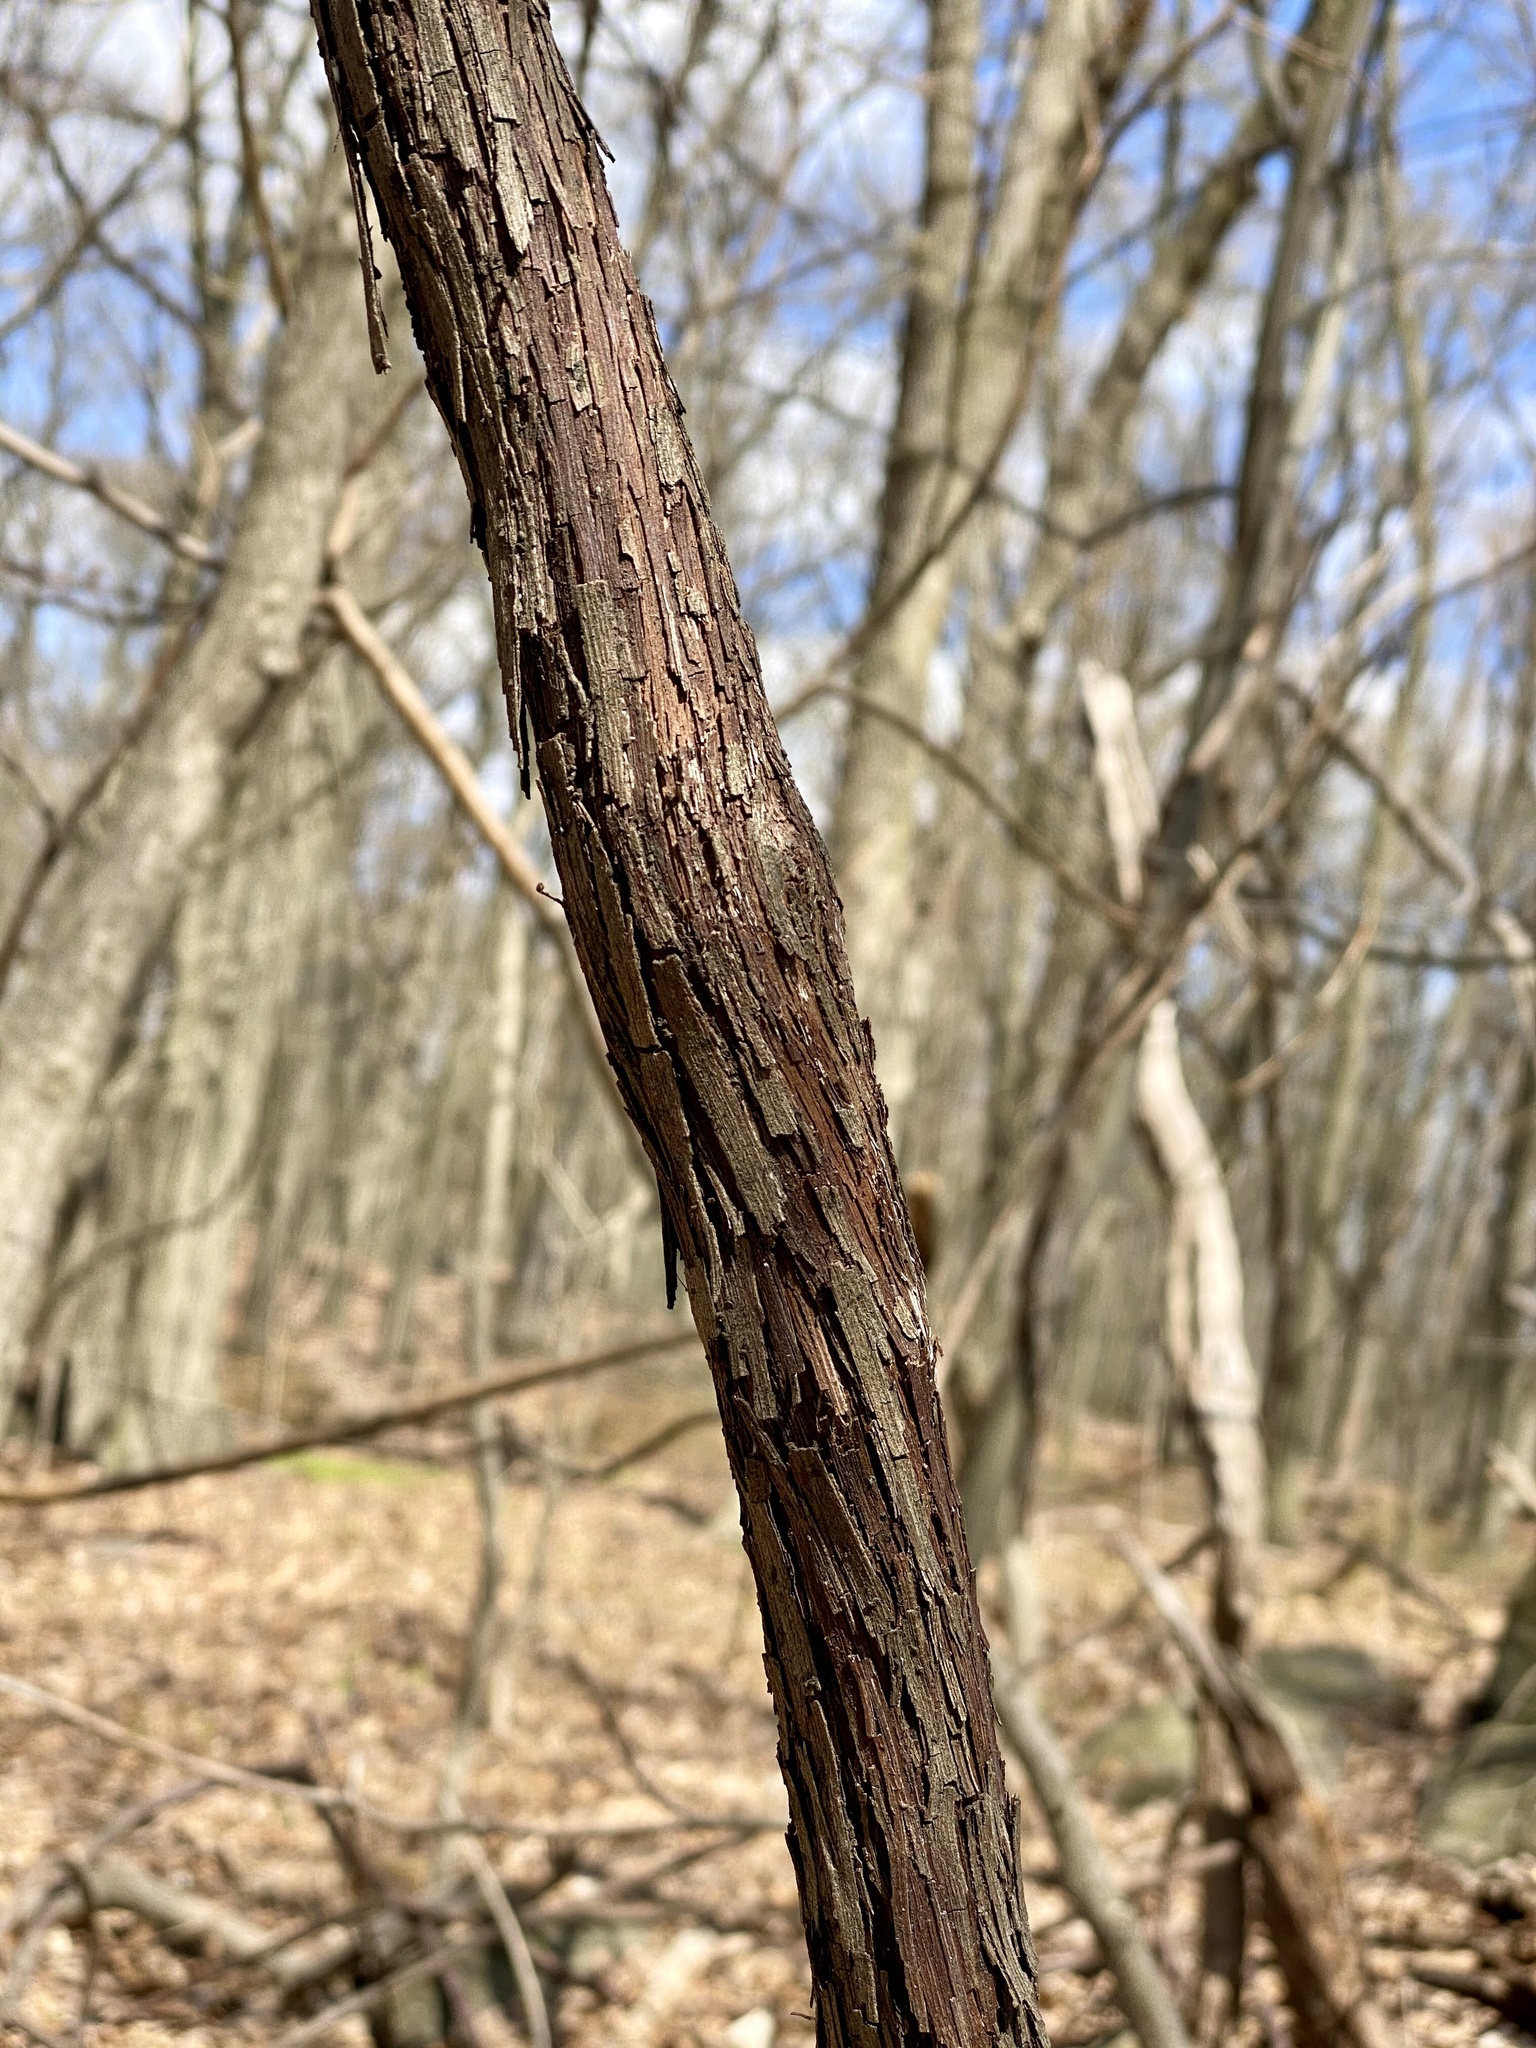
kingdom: Plantae
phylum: Tracheophyta
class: Magnoliopsida
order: Vitales
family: Vitaceae
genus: Vitis
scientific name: Vitis
